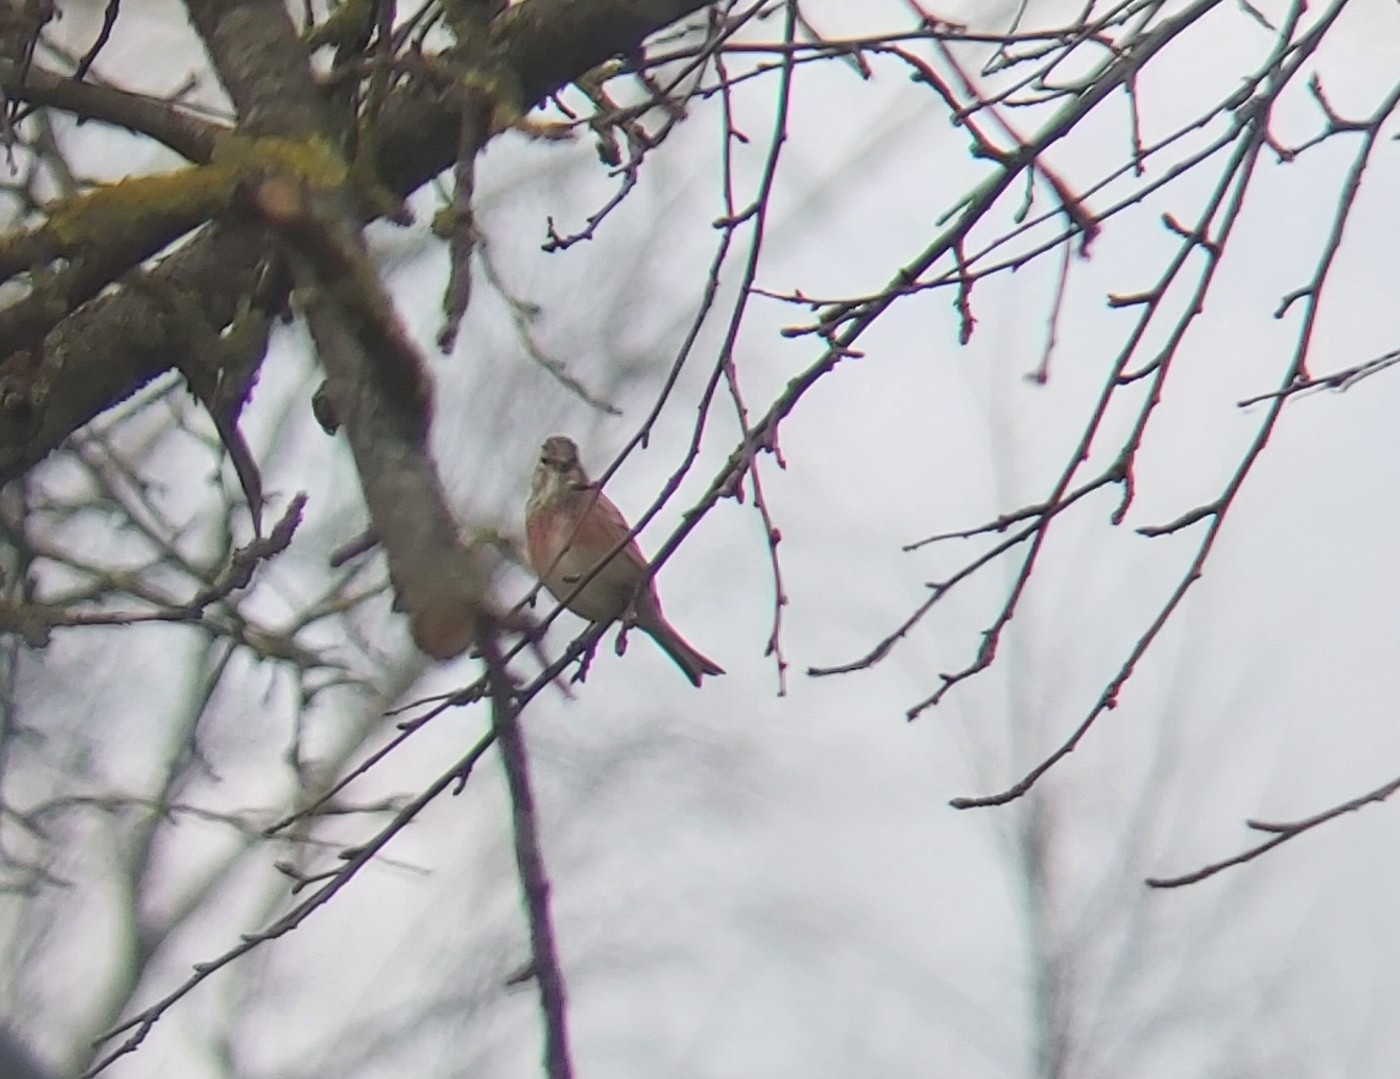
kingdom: Animalia
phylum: Chordata
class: Aves
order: Passeriformes
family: Fringillidae
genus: Linaria
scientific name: Linaria cannabina
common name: Common linnet
